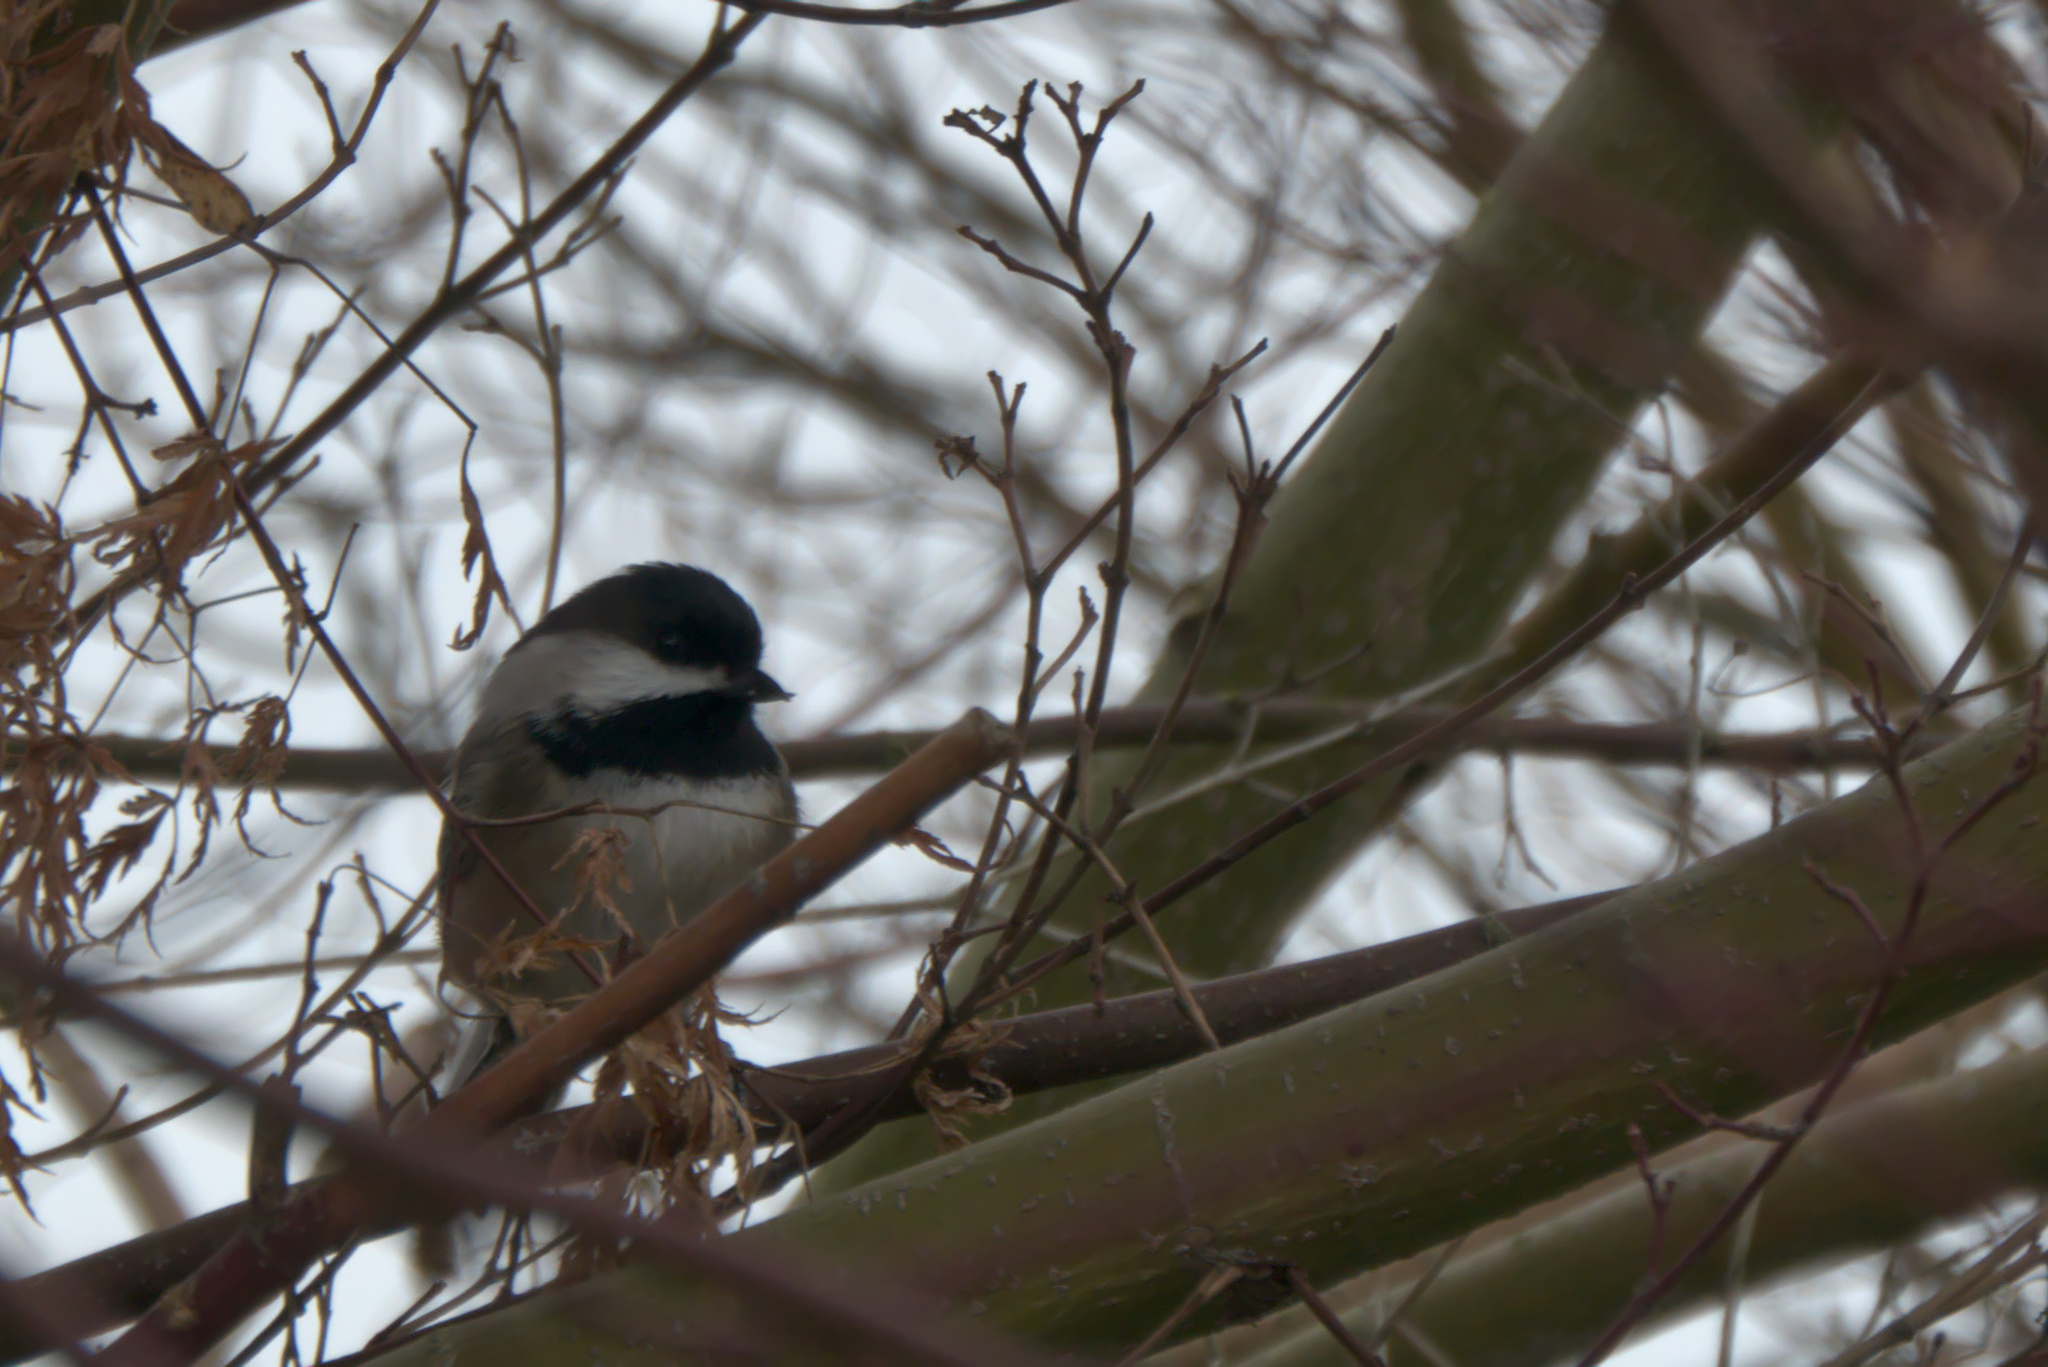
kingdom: Animalia
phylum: Chordata
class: Aves
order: Passeriformes
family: Paridae
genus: Poecile
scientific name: Poecile atricapillus
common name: Black-capped chickadee
